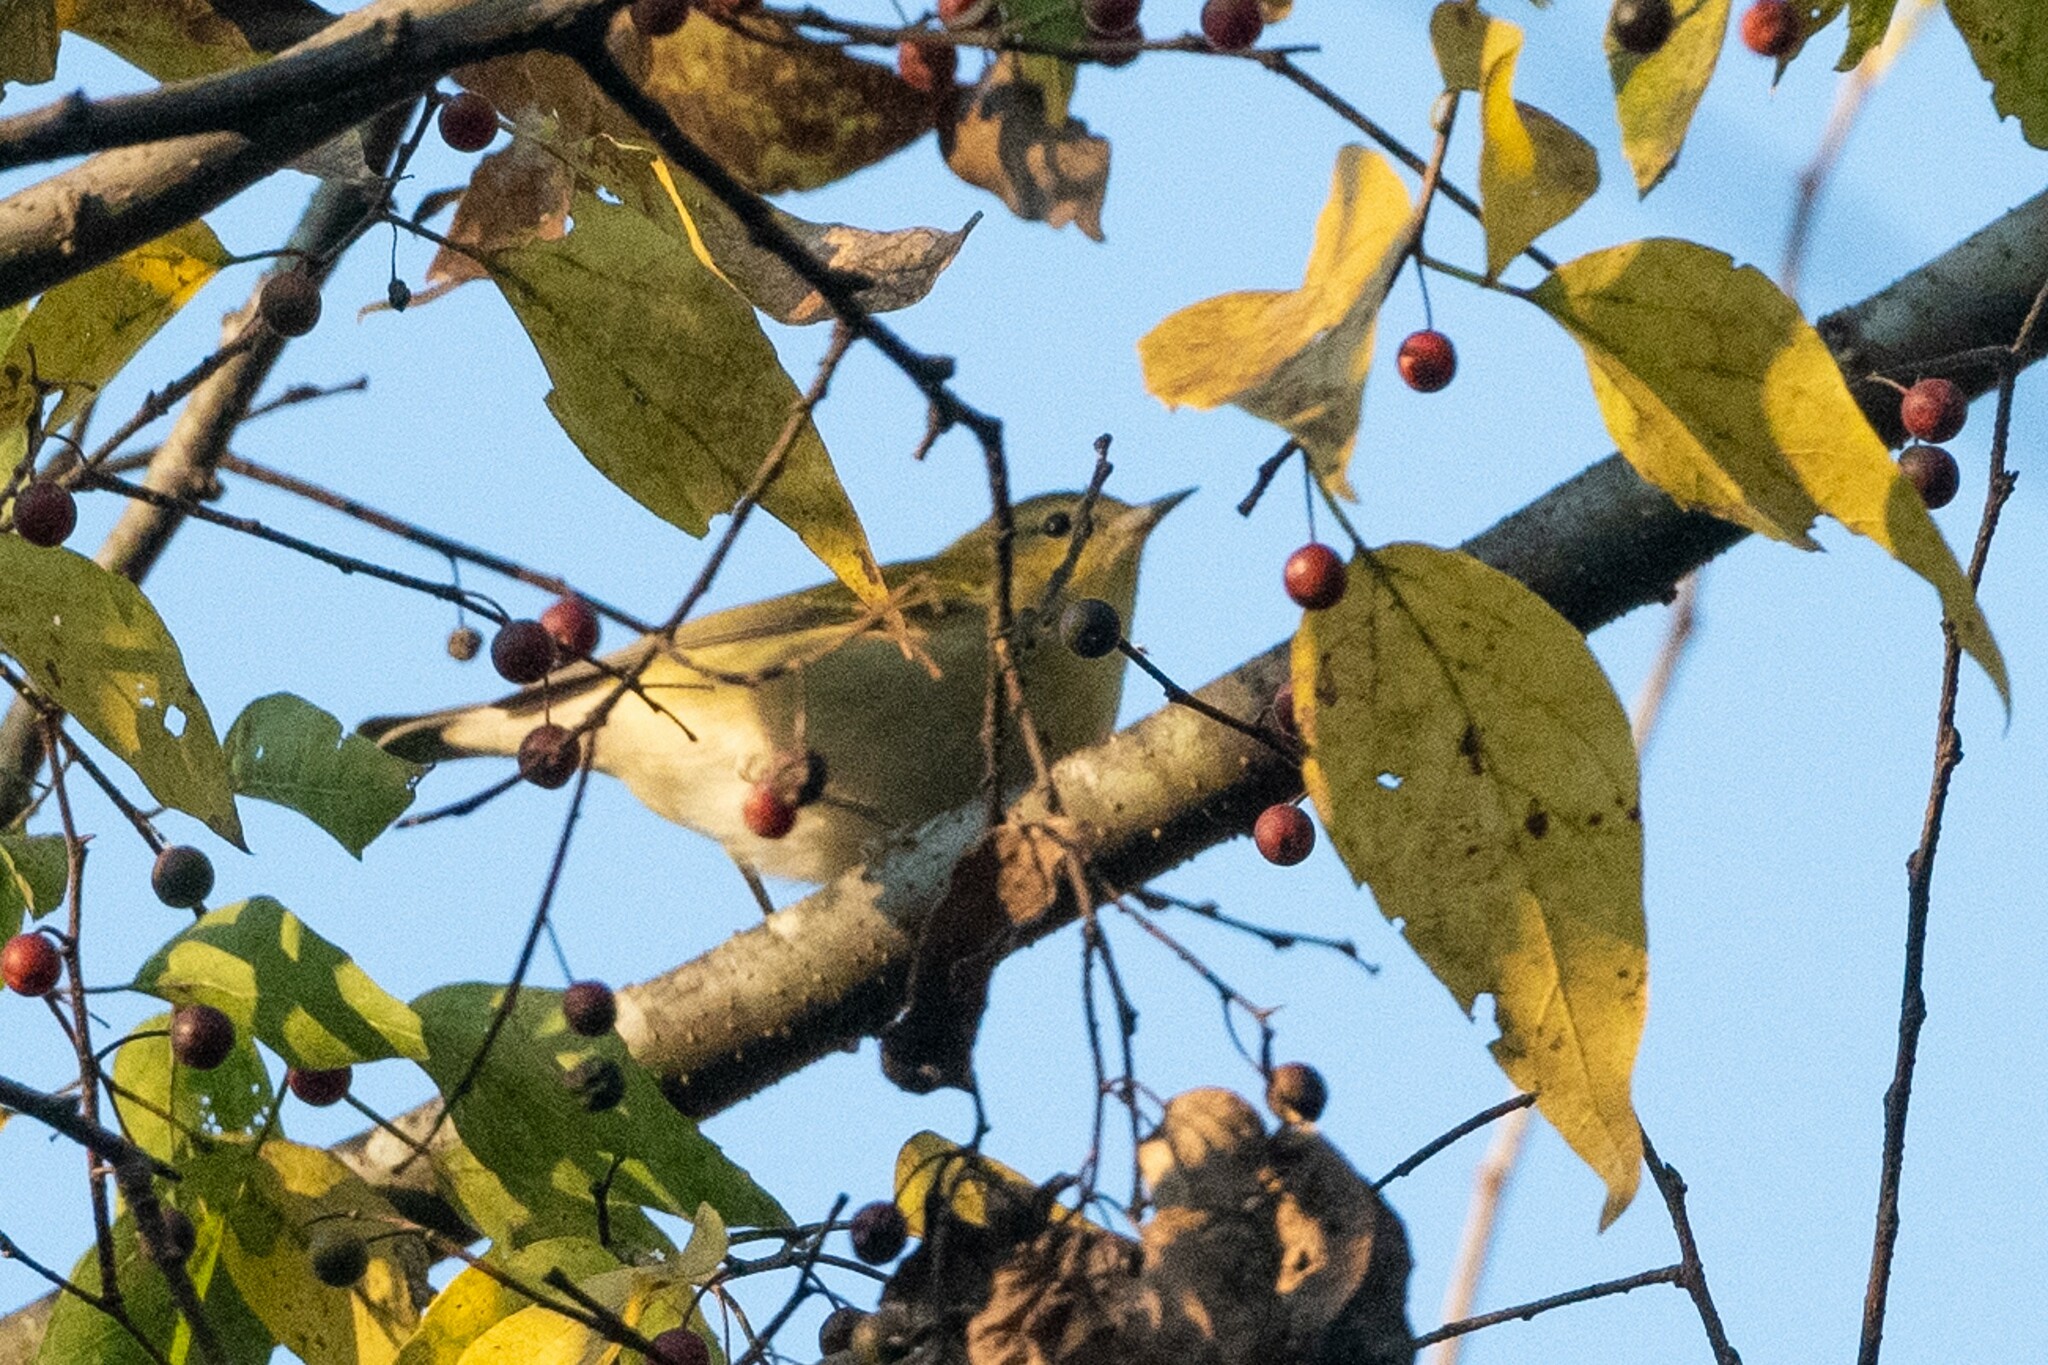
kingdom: Animalia
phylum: Chordata
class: Aves
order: Passeriformes
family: Parulidae
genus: Leiothlypis
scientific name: Leiothlypis peregrina
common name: Tennessee warbler
